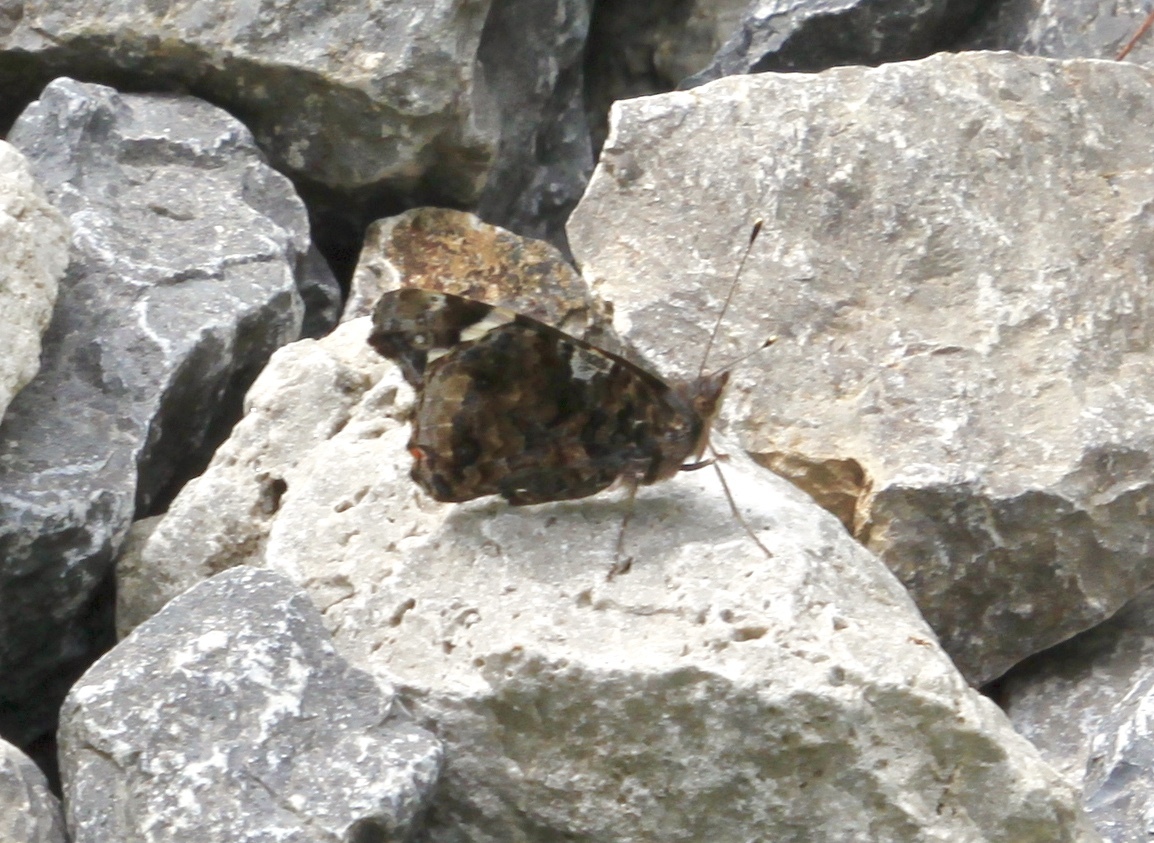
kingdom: Animalia
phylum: Arthropoda
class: Insecta
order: Lepidoptera
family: Nymphalidae
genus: Vanessa
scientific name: Vanessa atalanta
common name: Red admiral
